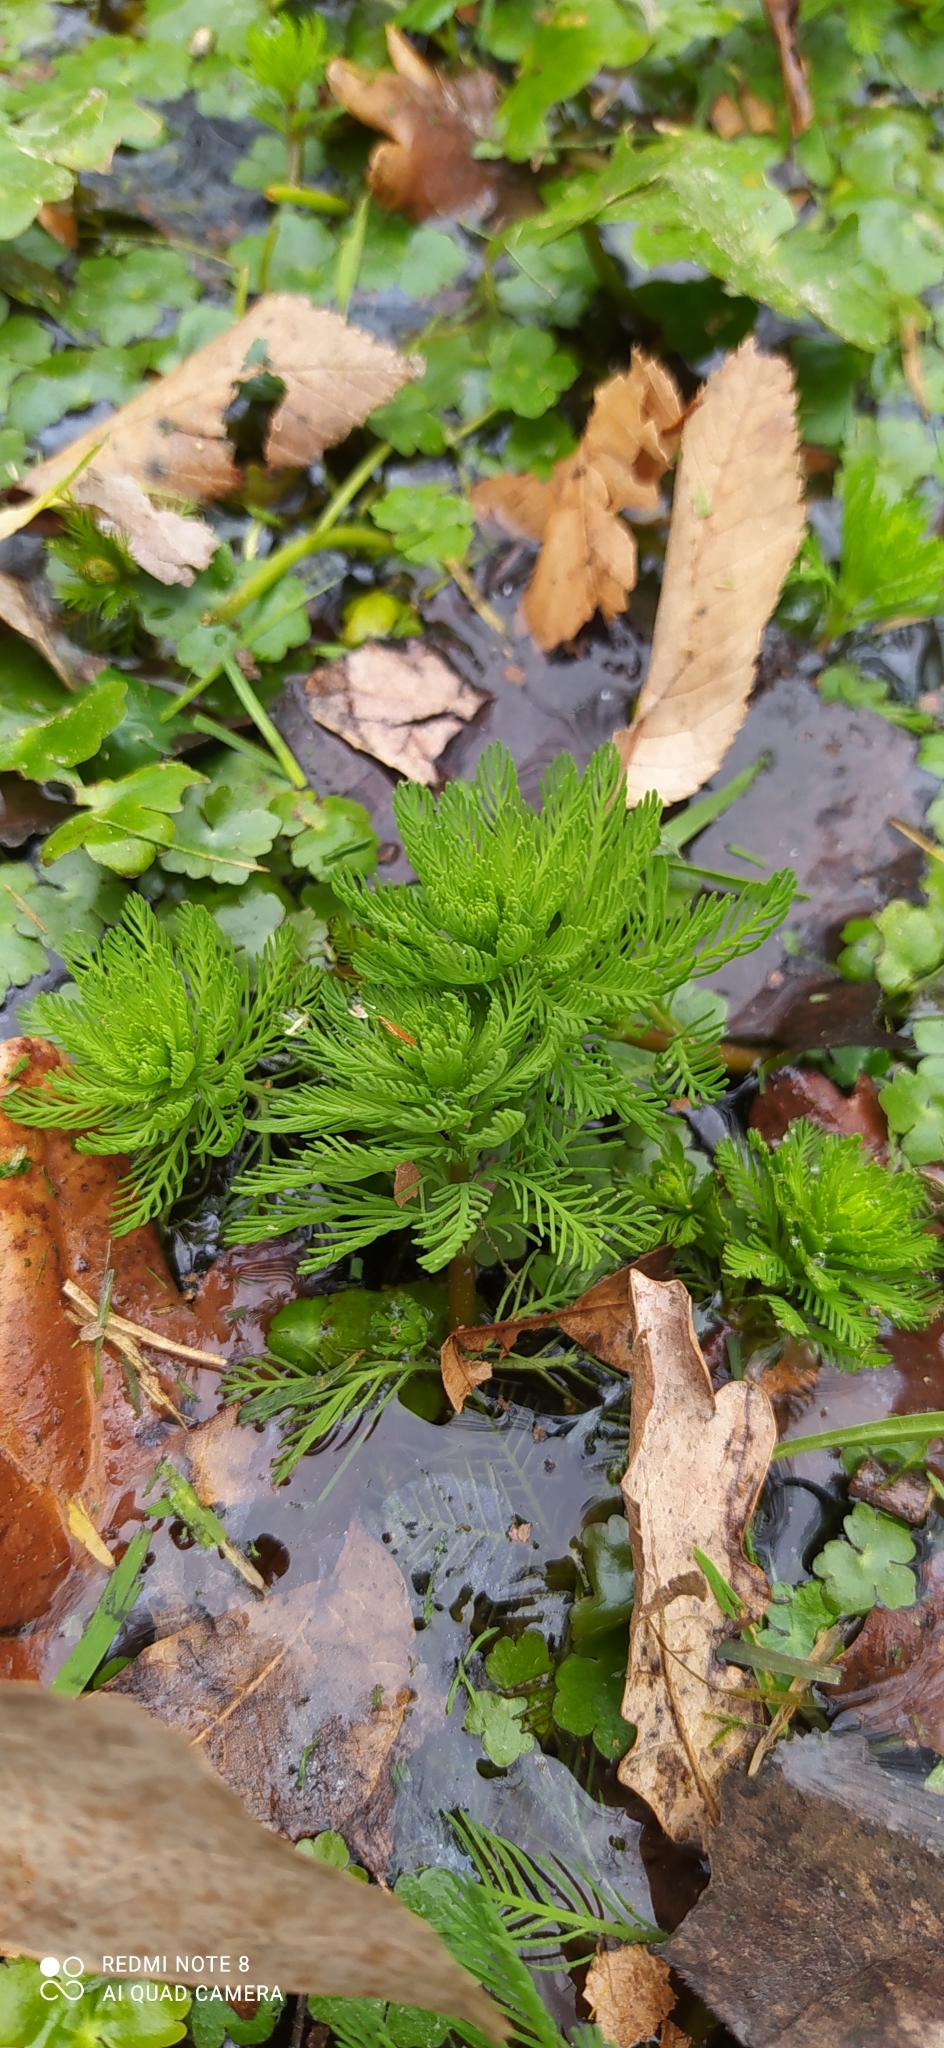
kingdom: Plantae
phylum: Tracheophyta
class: Magnoliopsida
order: Saxifragales
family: Haloragaceae
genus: Myriophyllum
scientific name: Myriophyllum aquaticum
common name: Parrot's feather
